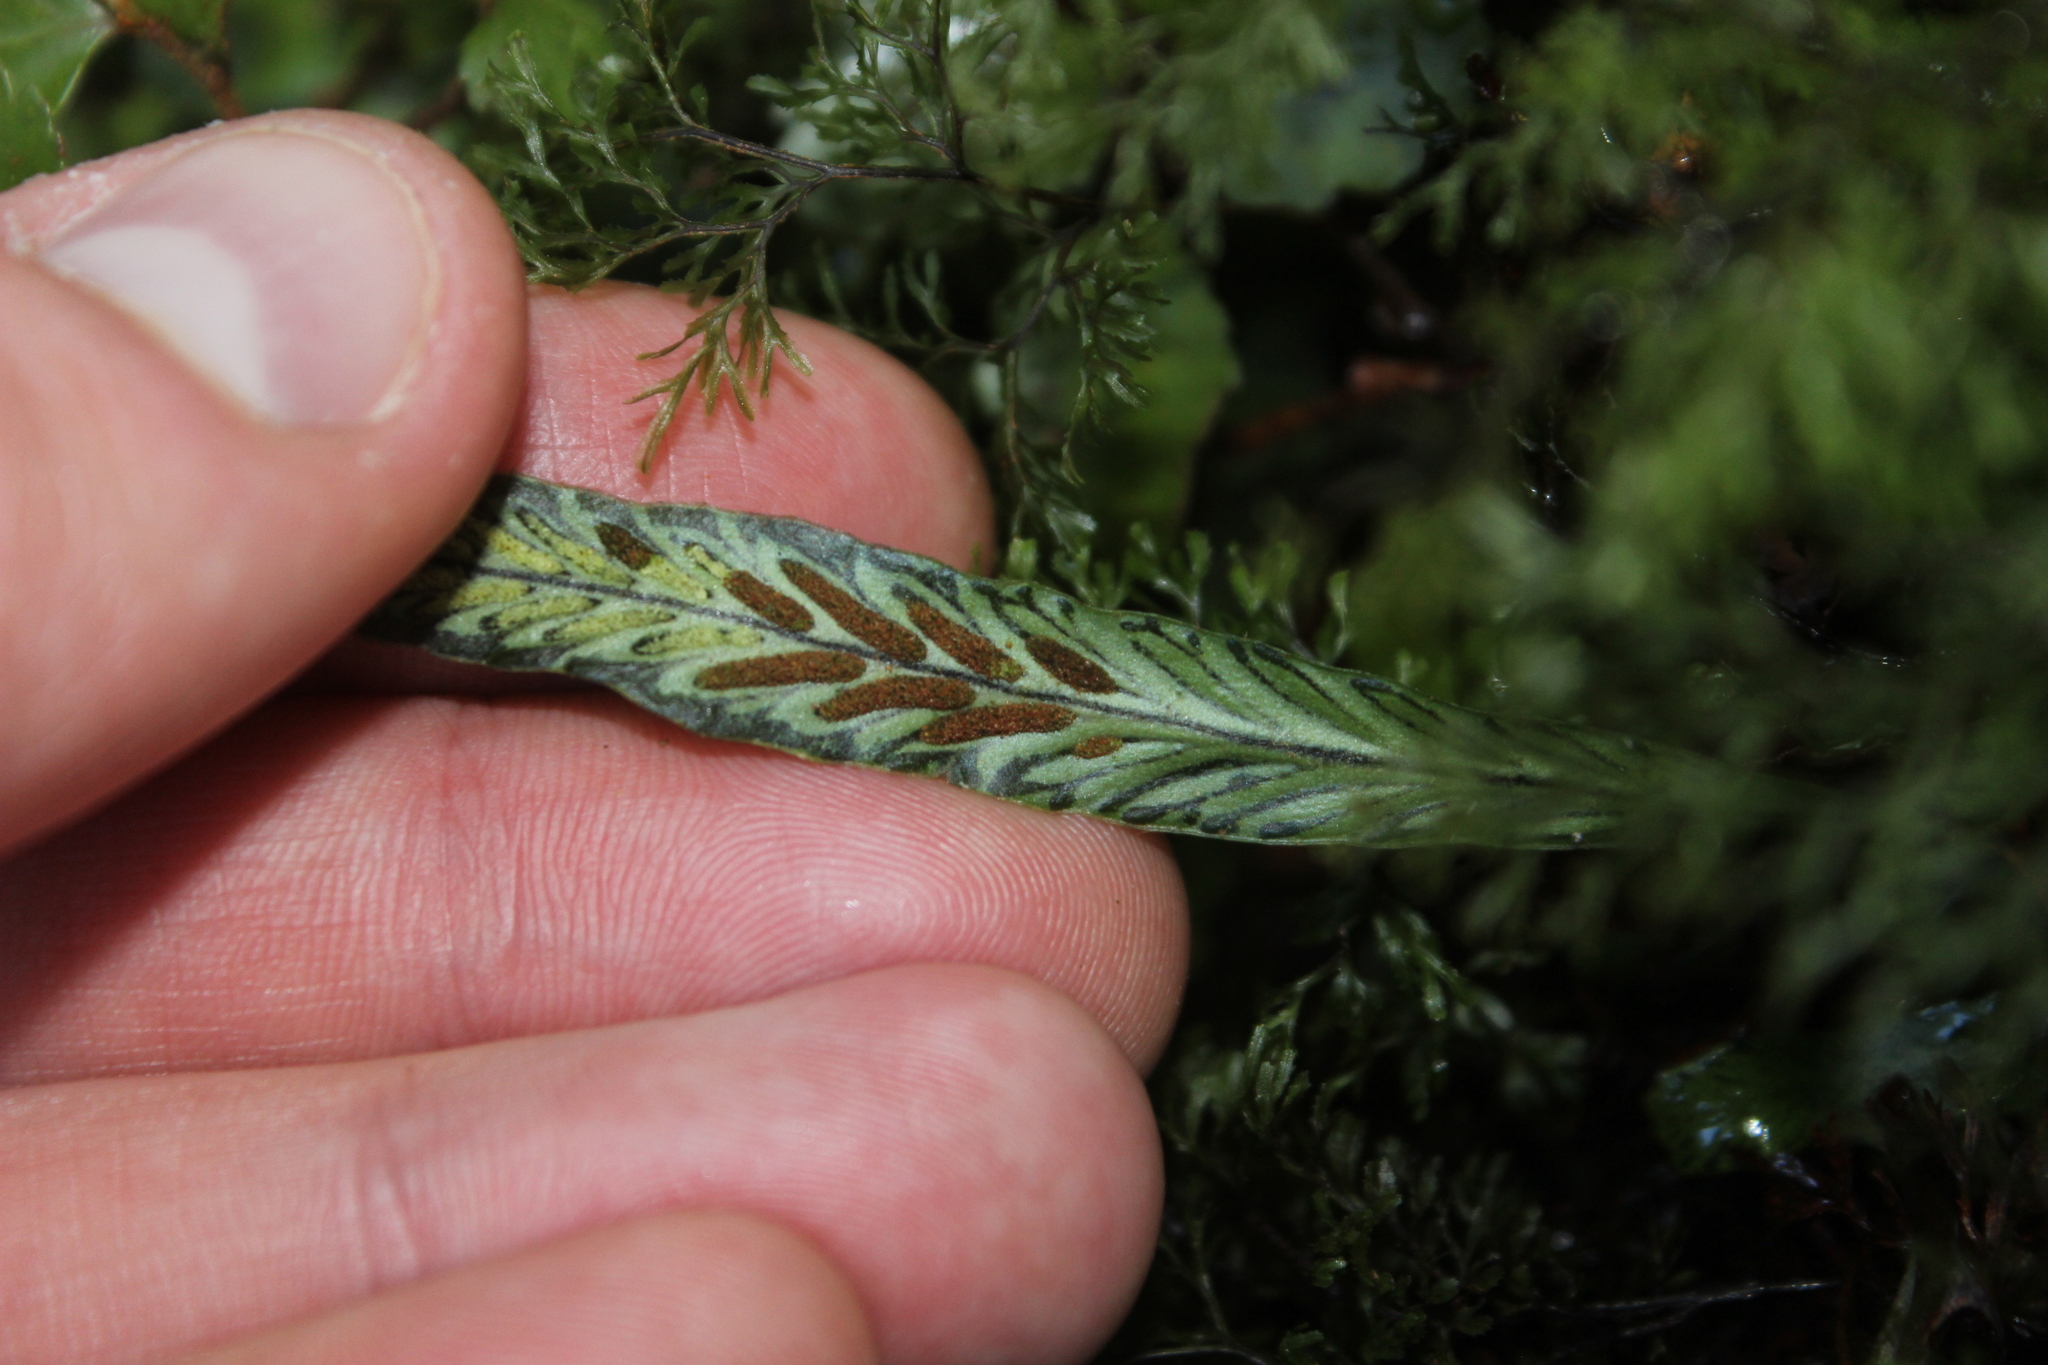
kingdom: Plantae
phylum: Tracheophyta
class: Polypodiopsida
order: Polypodiales
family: Polypodiaceae
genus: Notogrammitis
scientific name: Notogrammitis billardierei
